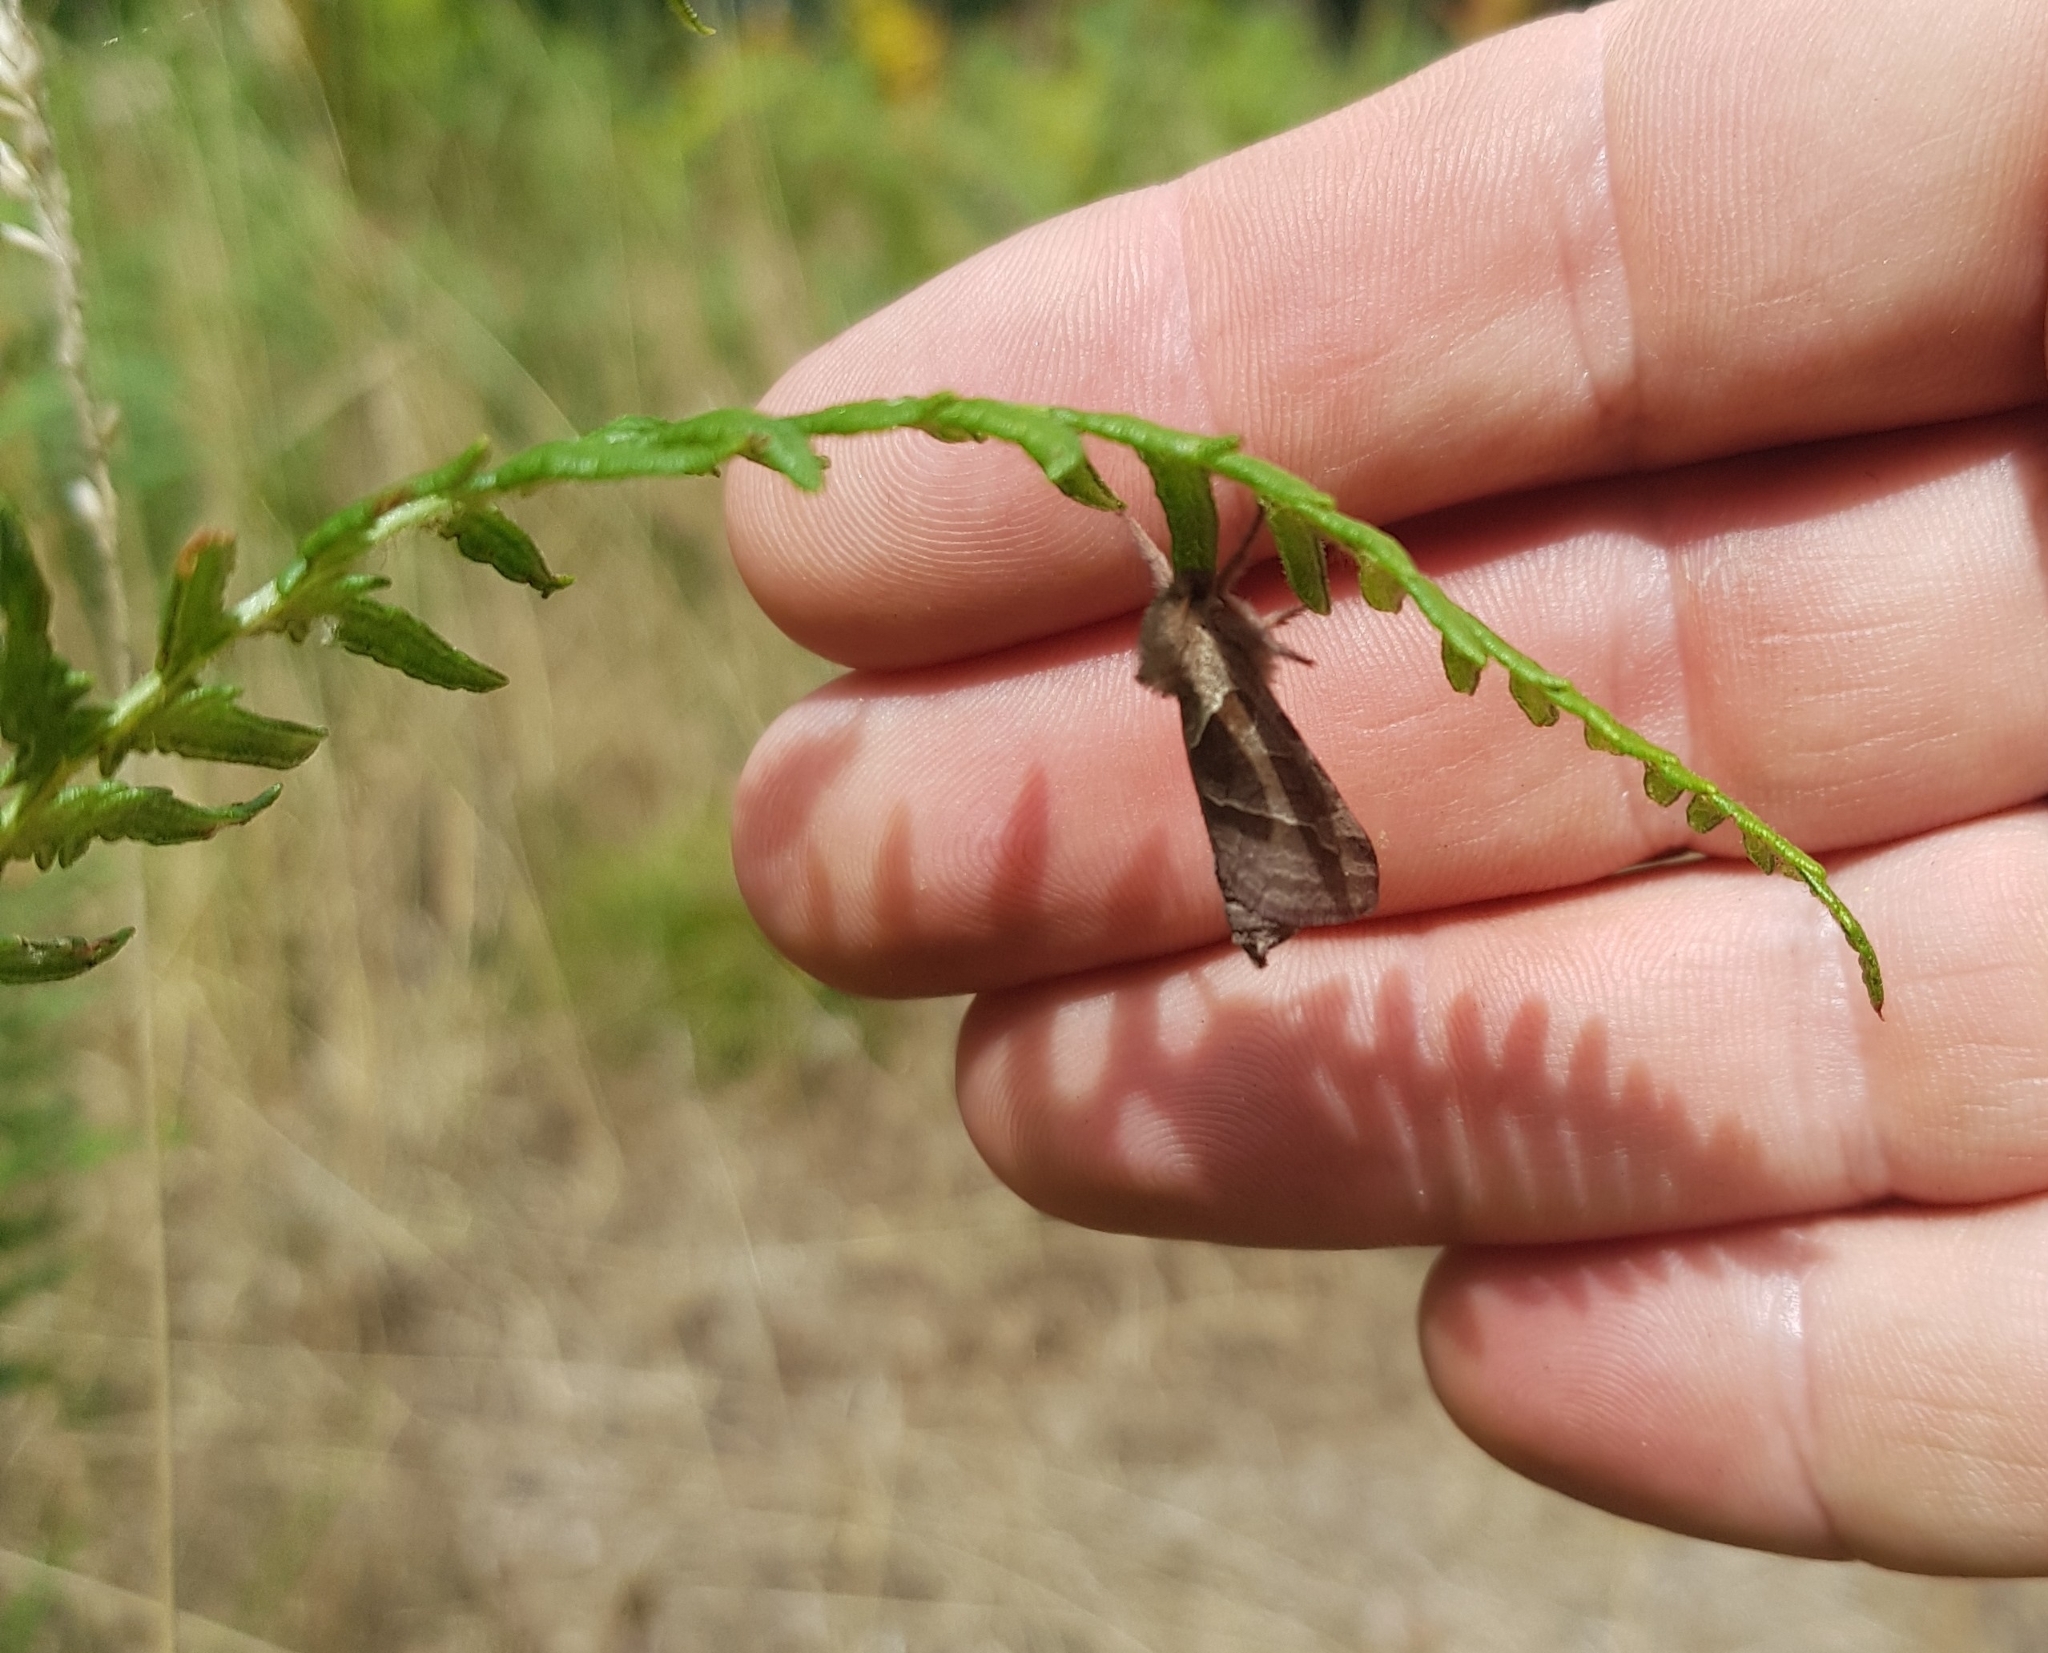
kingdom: Animalia
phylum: Arthropoda
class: Insecta
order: Lepidoptera
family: Hepialidae
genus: Triodia
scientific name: Triodia sylvina
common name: Orange swift
